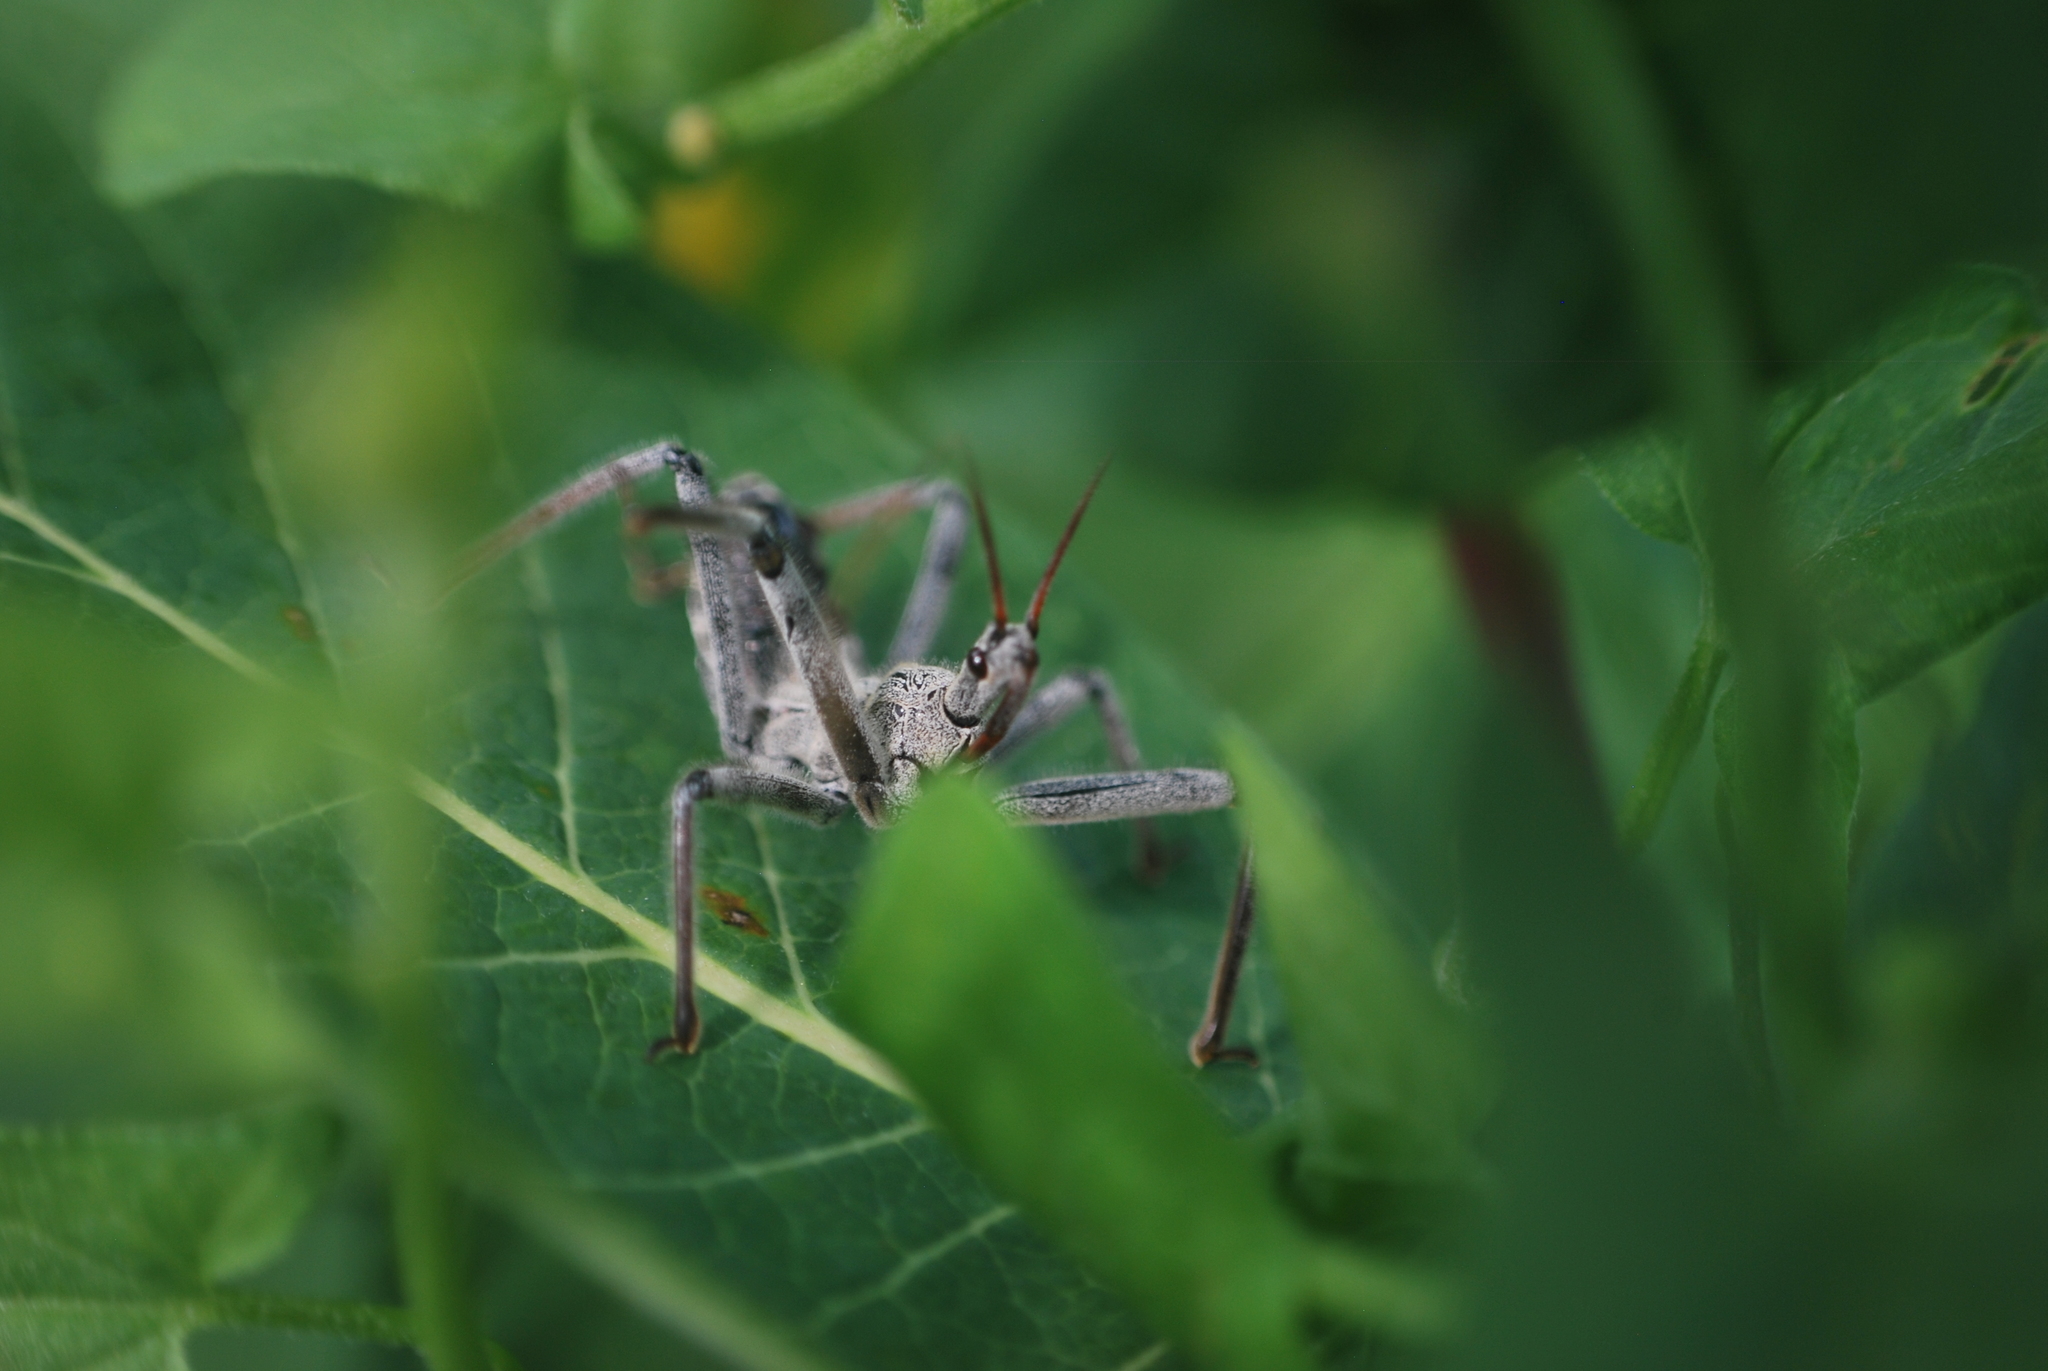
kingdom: Animalia
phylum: Arthropoda
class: Insecta
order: Hemiptera
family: Reduviidae
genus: Arilus
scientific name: Arilus cristatus
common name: North american wheel bug
